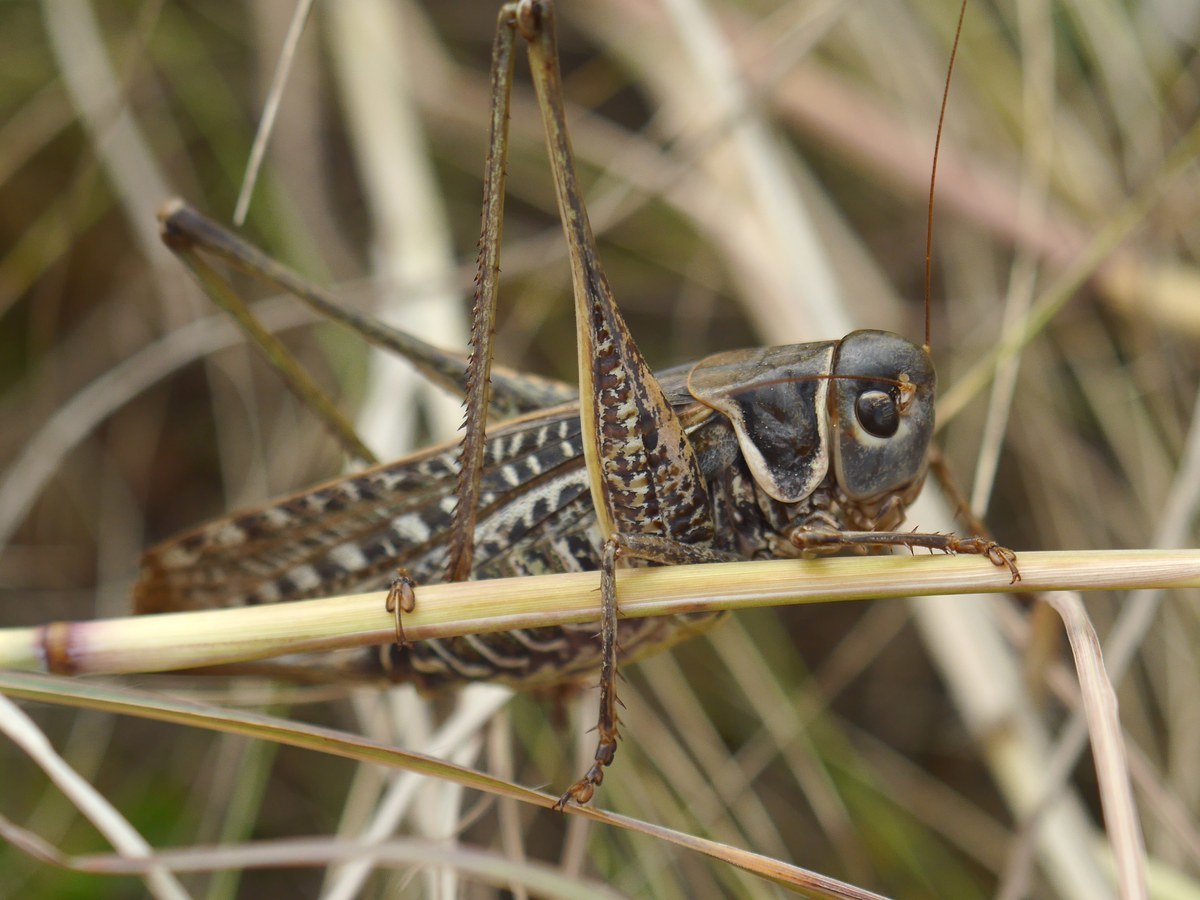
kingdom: Animalia
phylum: Arthropoda
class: Insecta
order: Orthoptera
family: Tettigoniidae
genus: Decticus
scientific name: Decticus albifrons
